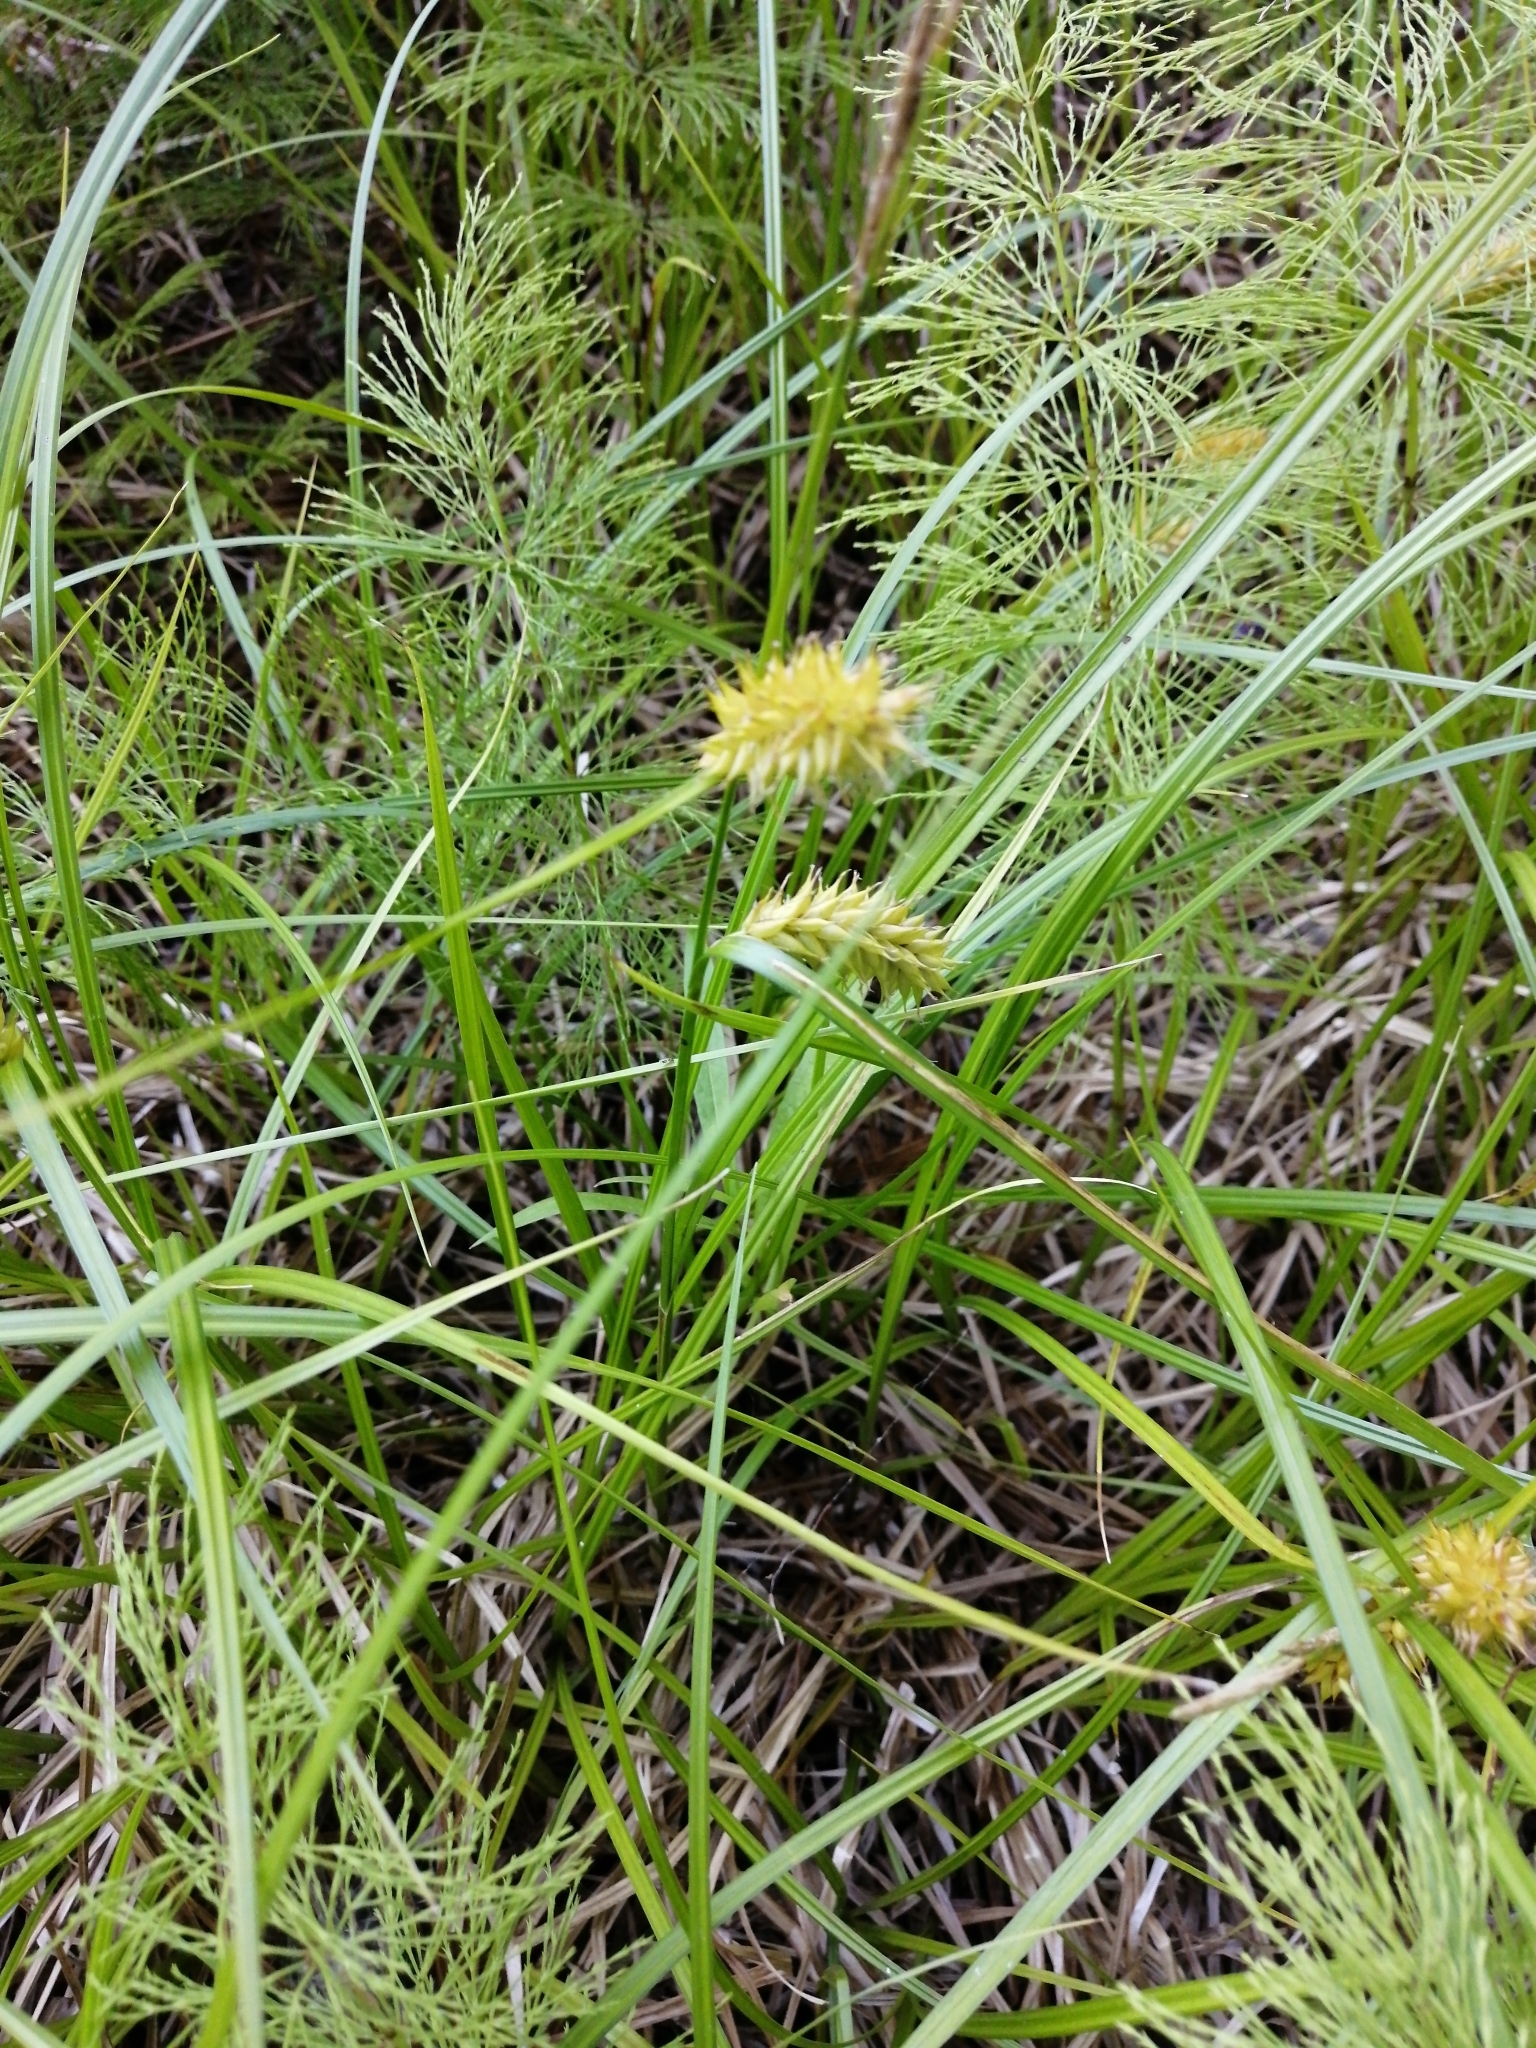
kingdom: Plantae
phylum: Tracheophyta
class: Liliopsida
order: Poales
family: Cyperaceae
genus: Carex
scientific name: Carex vesicaria
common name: Bladder-sedge
